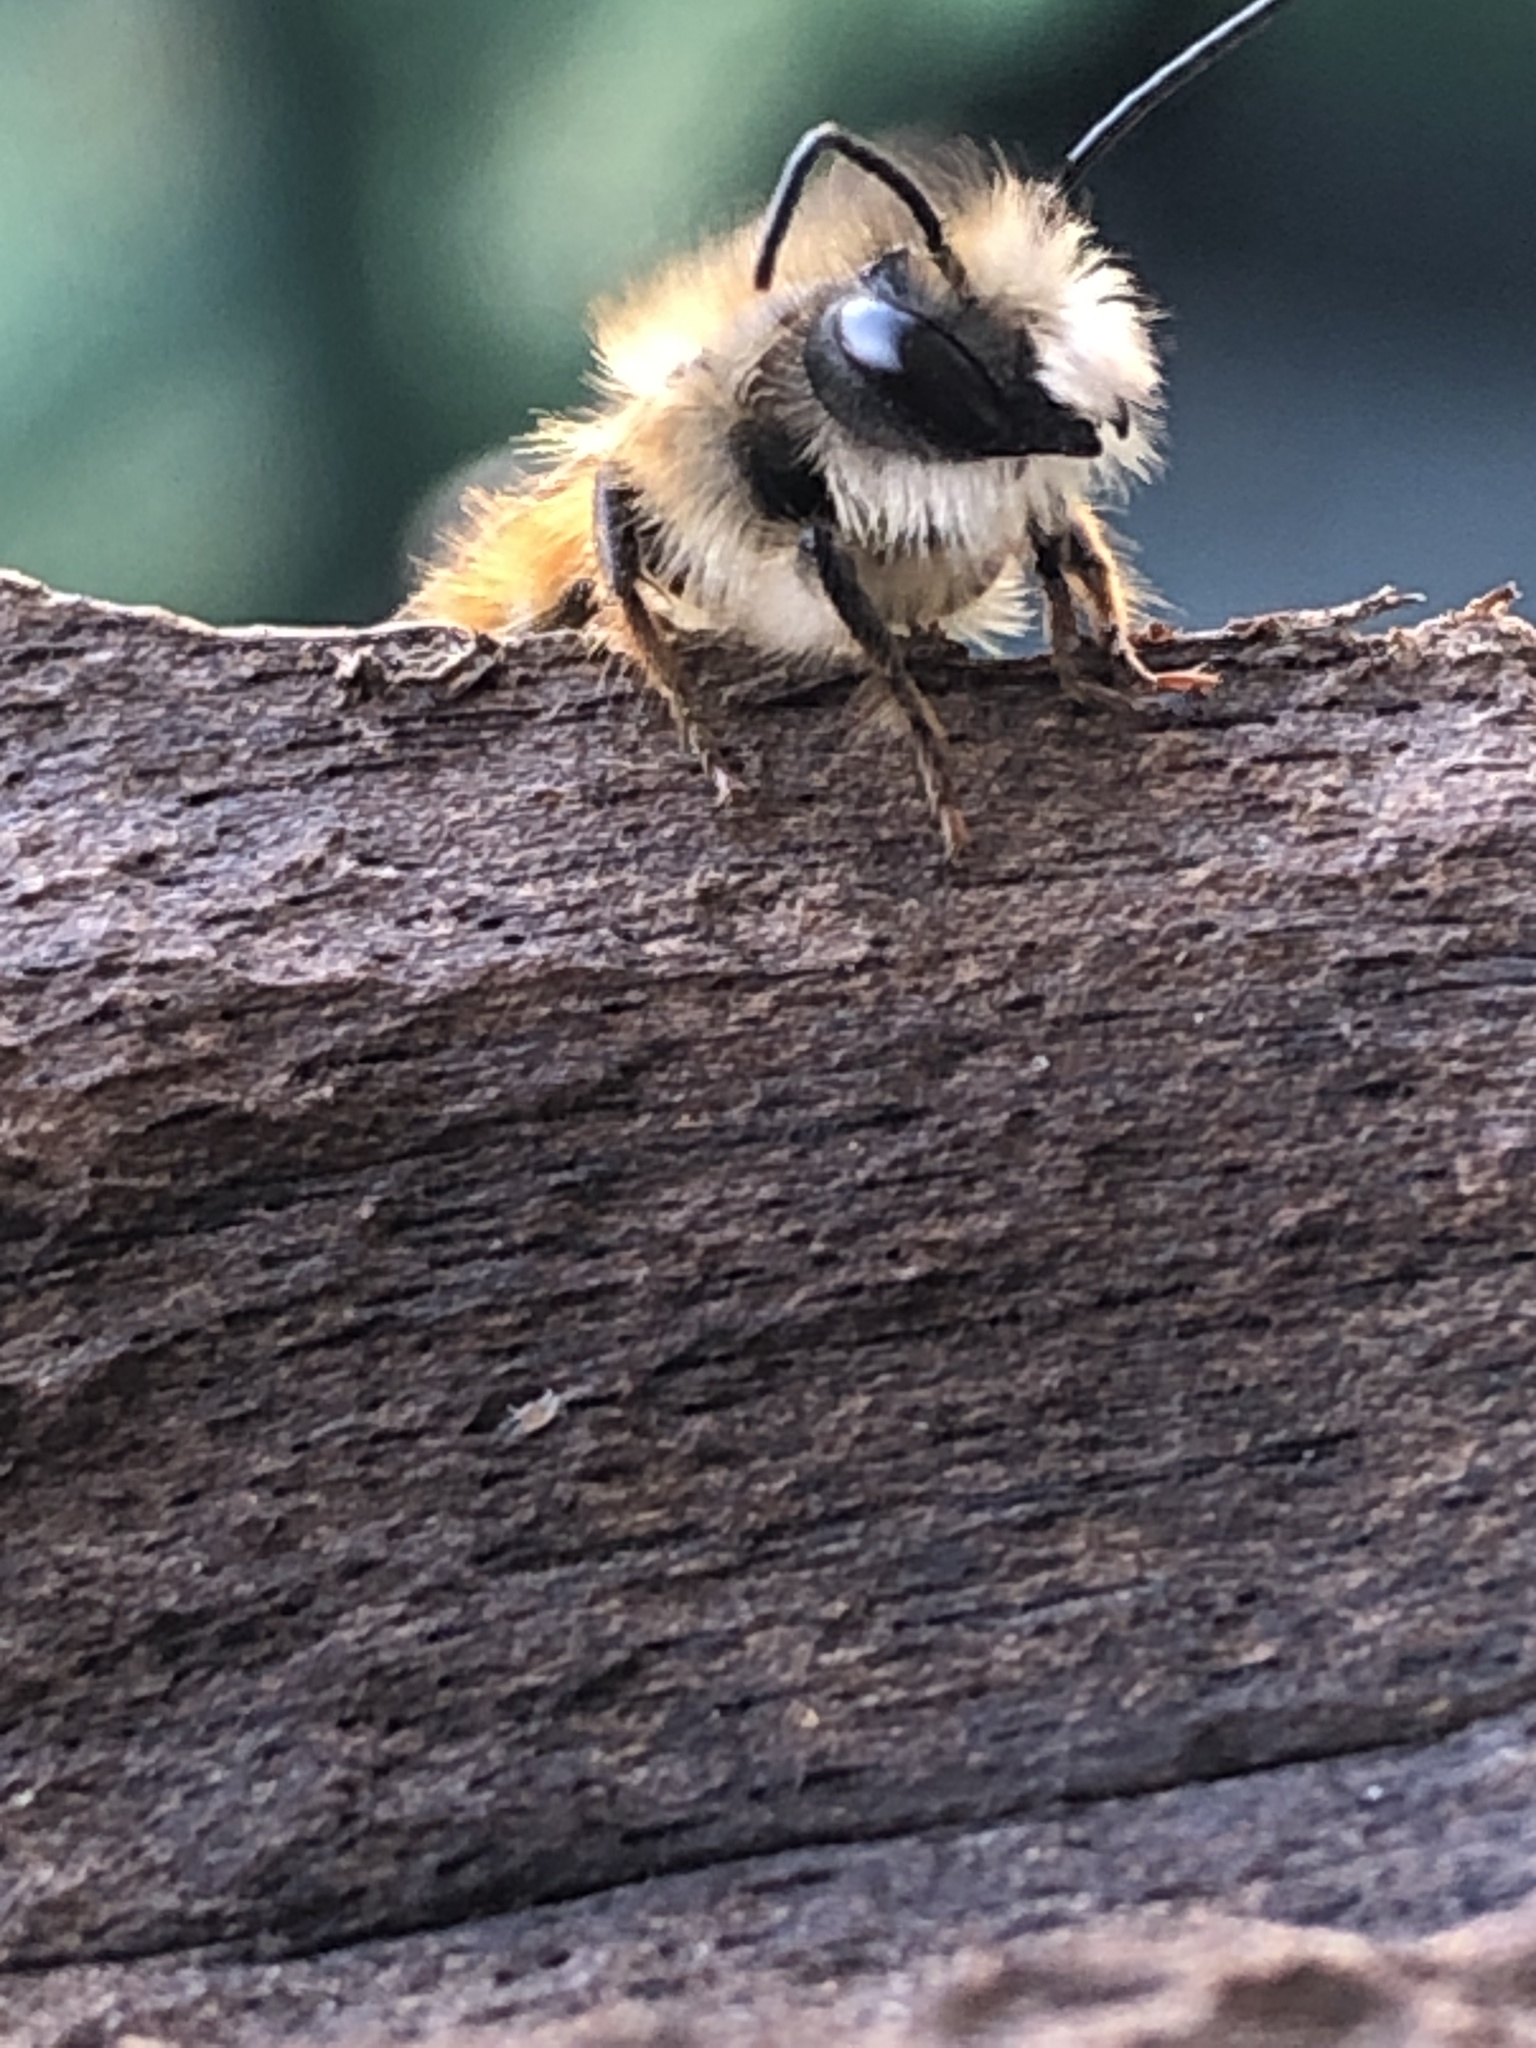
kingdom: Animalia
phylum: Arthropoda
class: Insecta
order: Hymenoptera
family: Megachilidae
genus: Osmia
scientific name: Osmia bicornis
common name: Red mason bee
